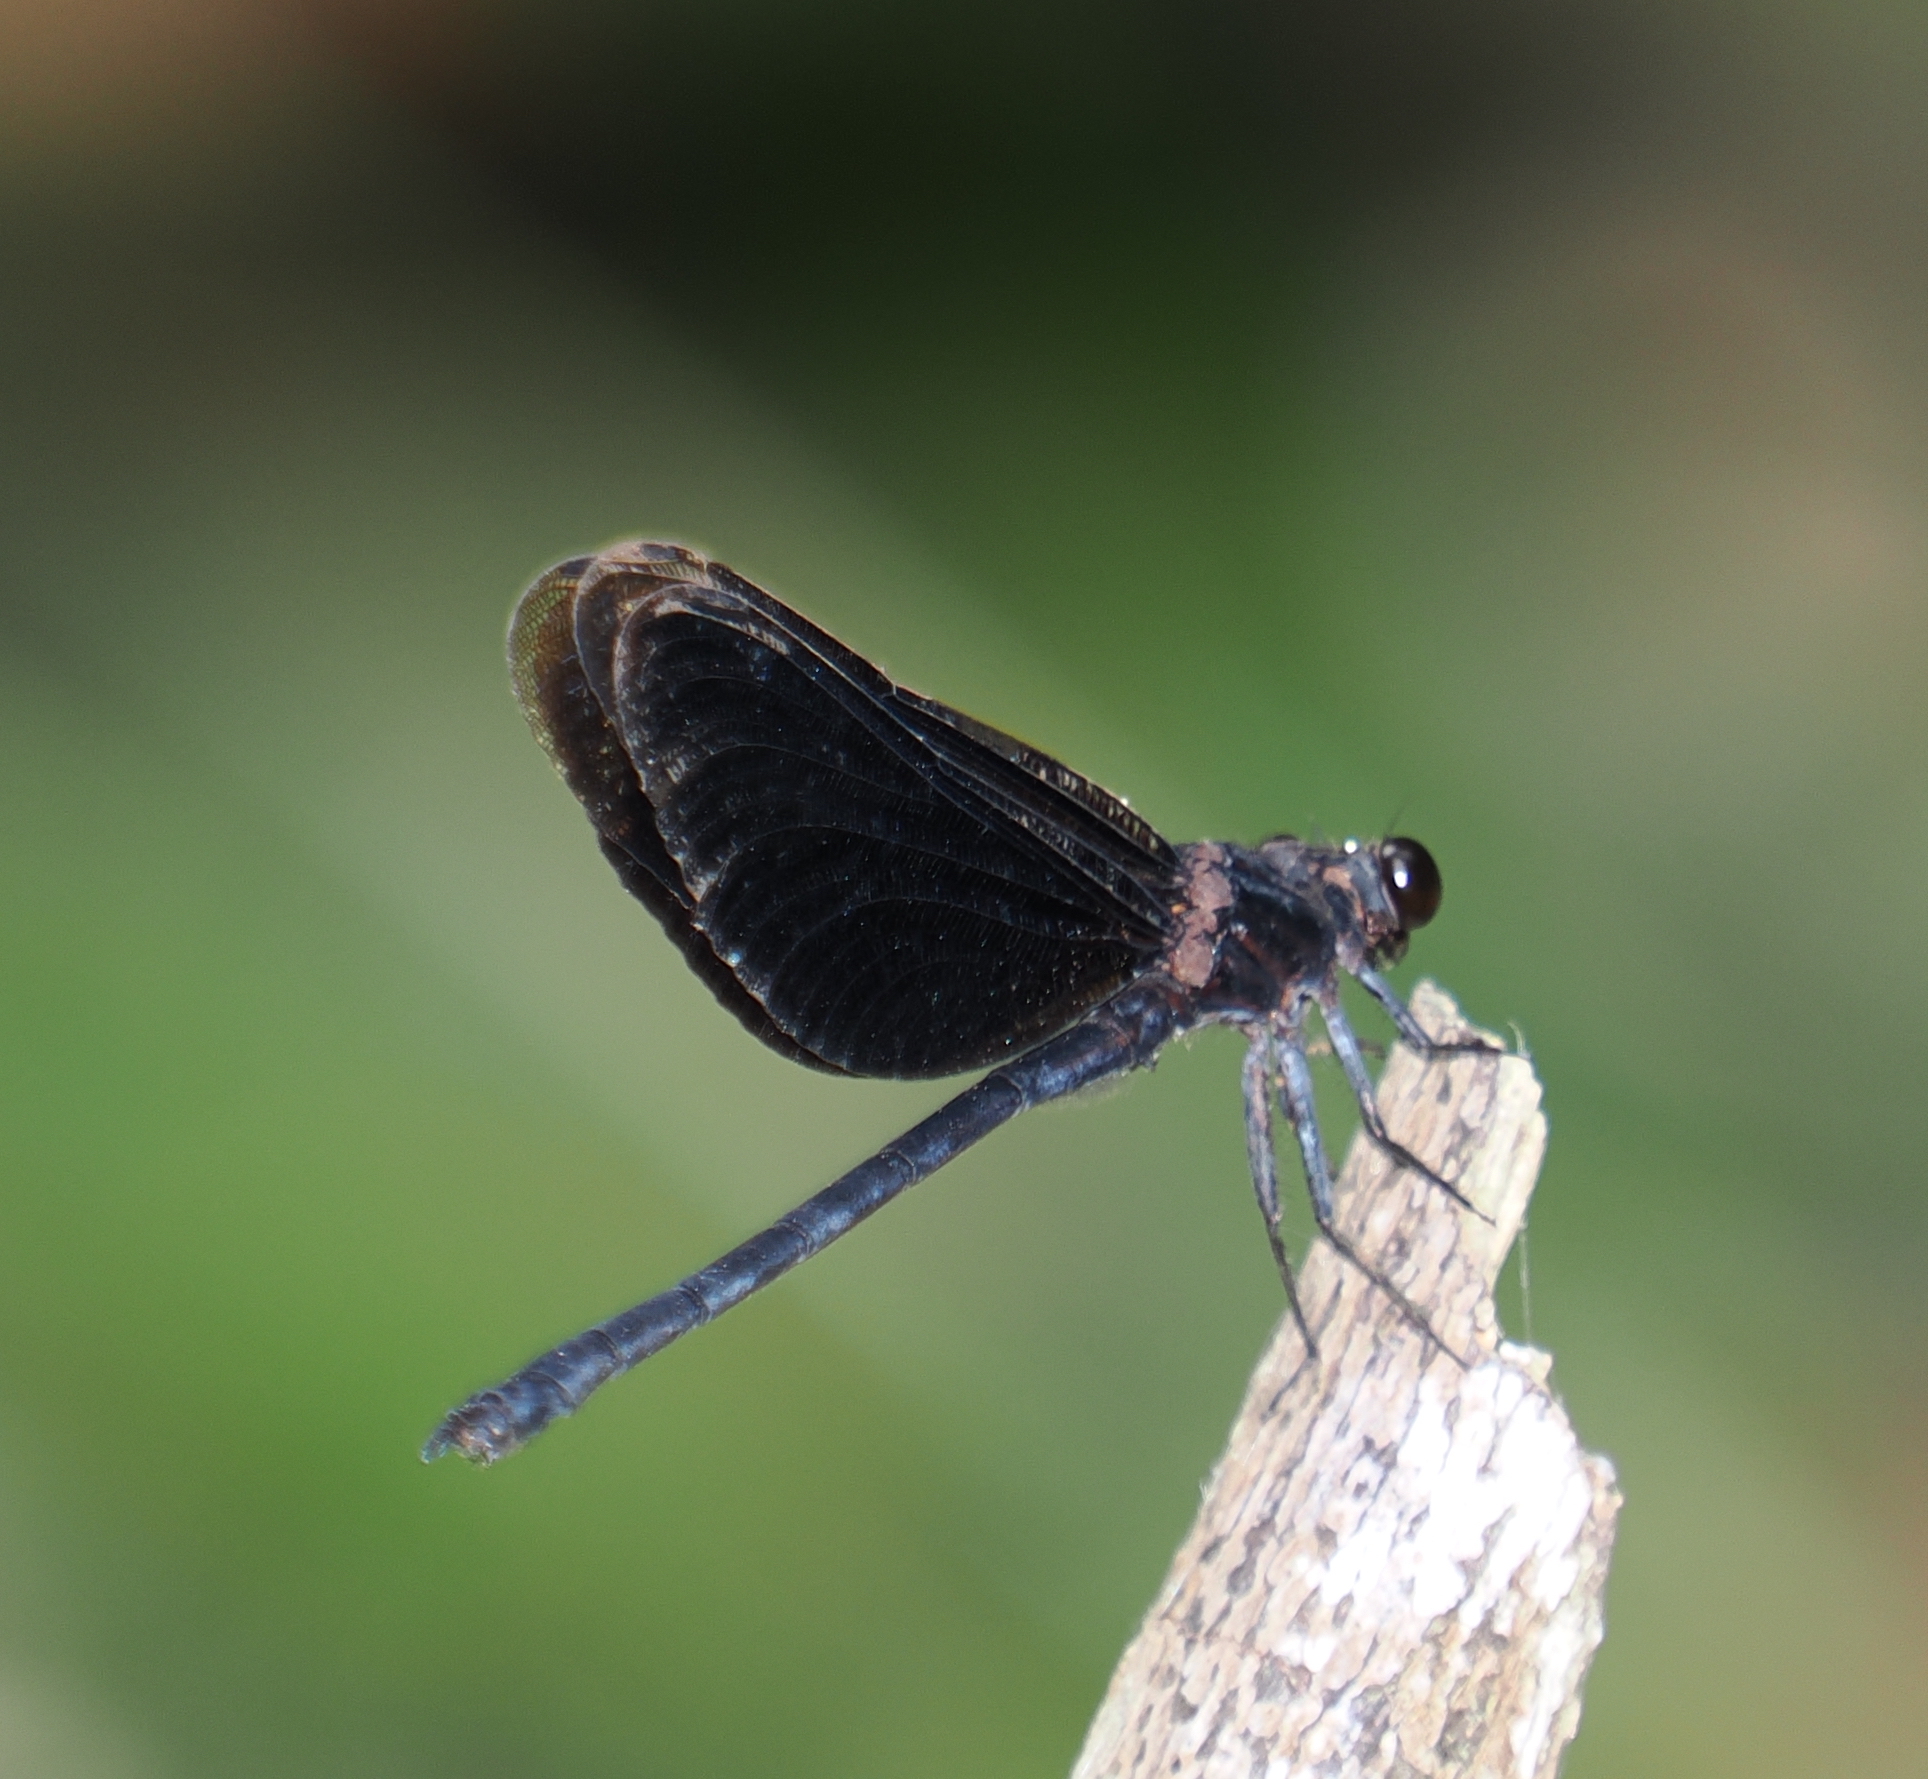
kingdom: Animalia
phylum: Arthropoda
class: Insecta
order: Odonata
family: Euphaeidae
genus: Euphaea
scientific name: Euphaea masoni
